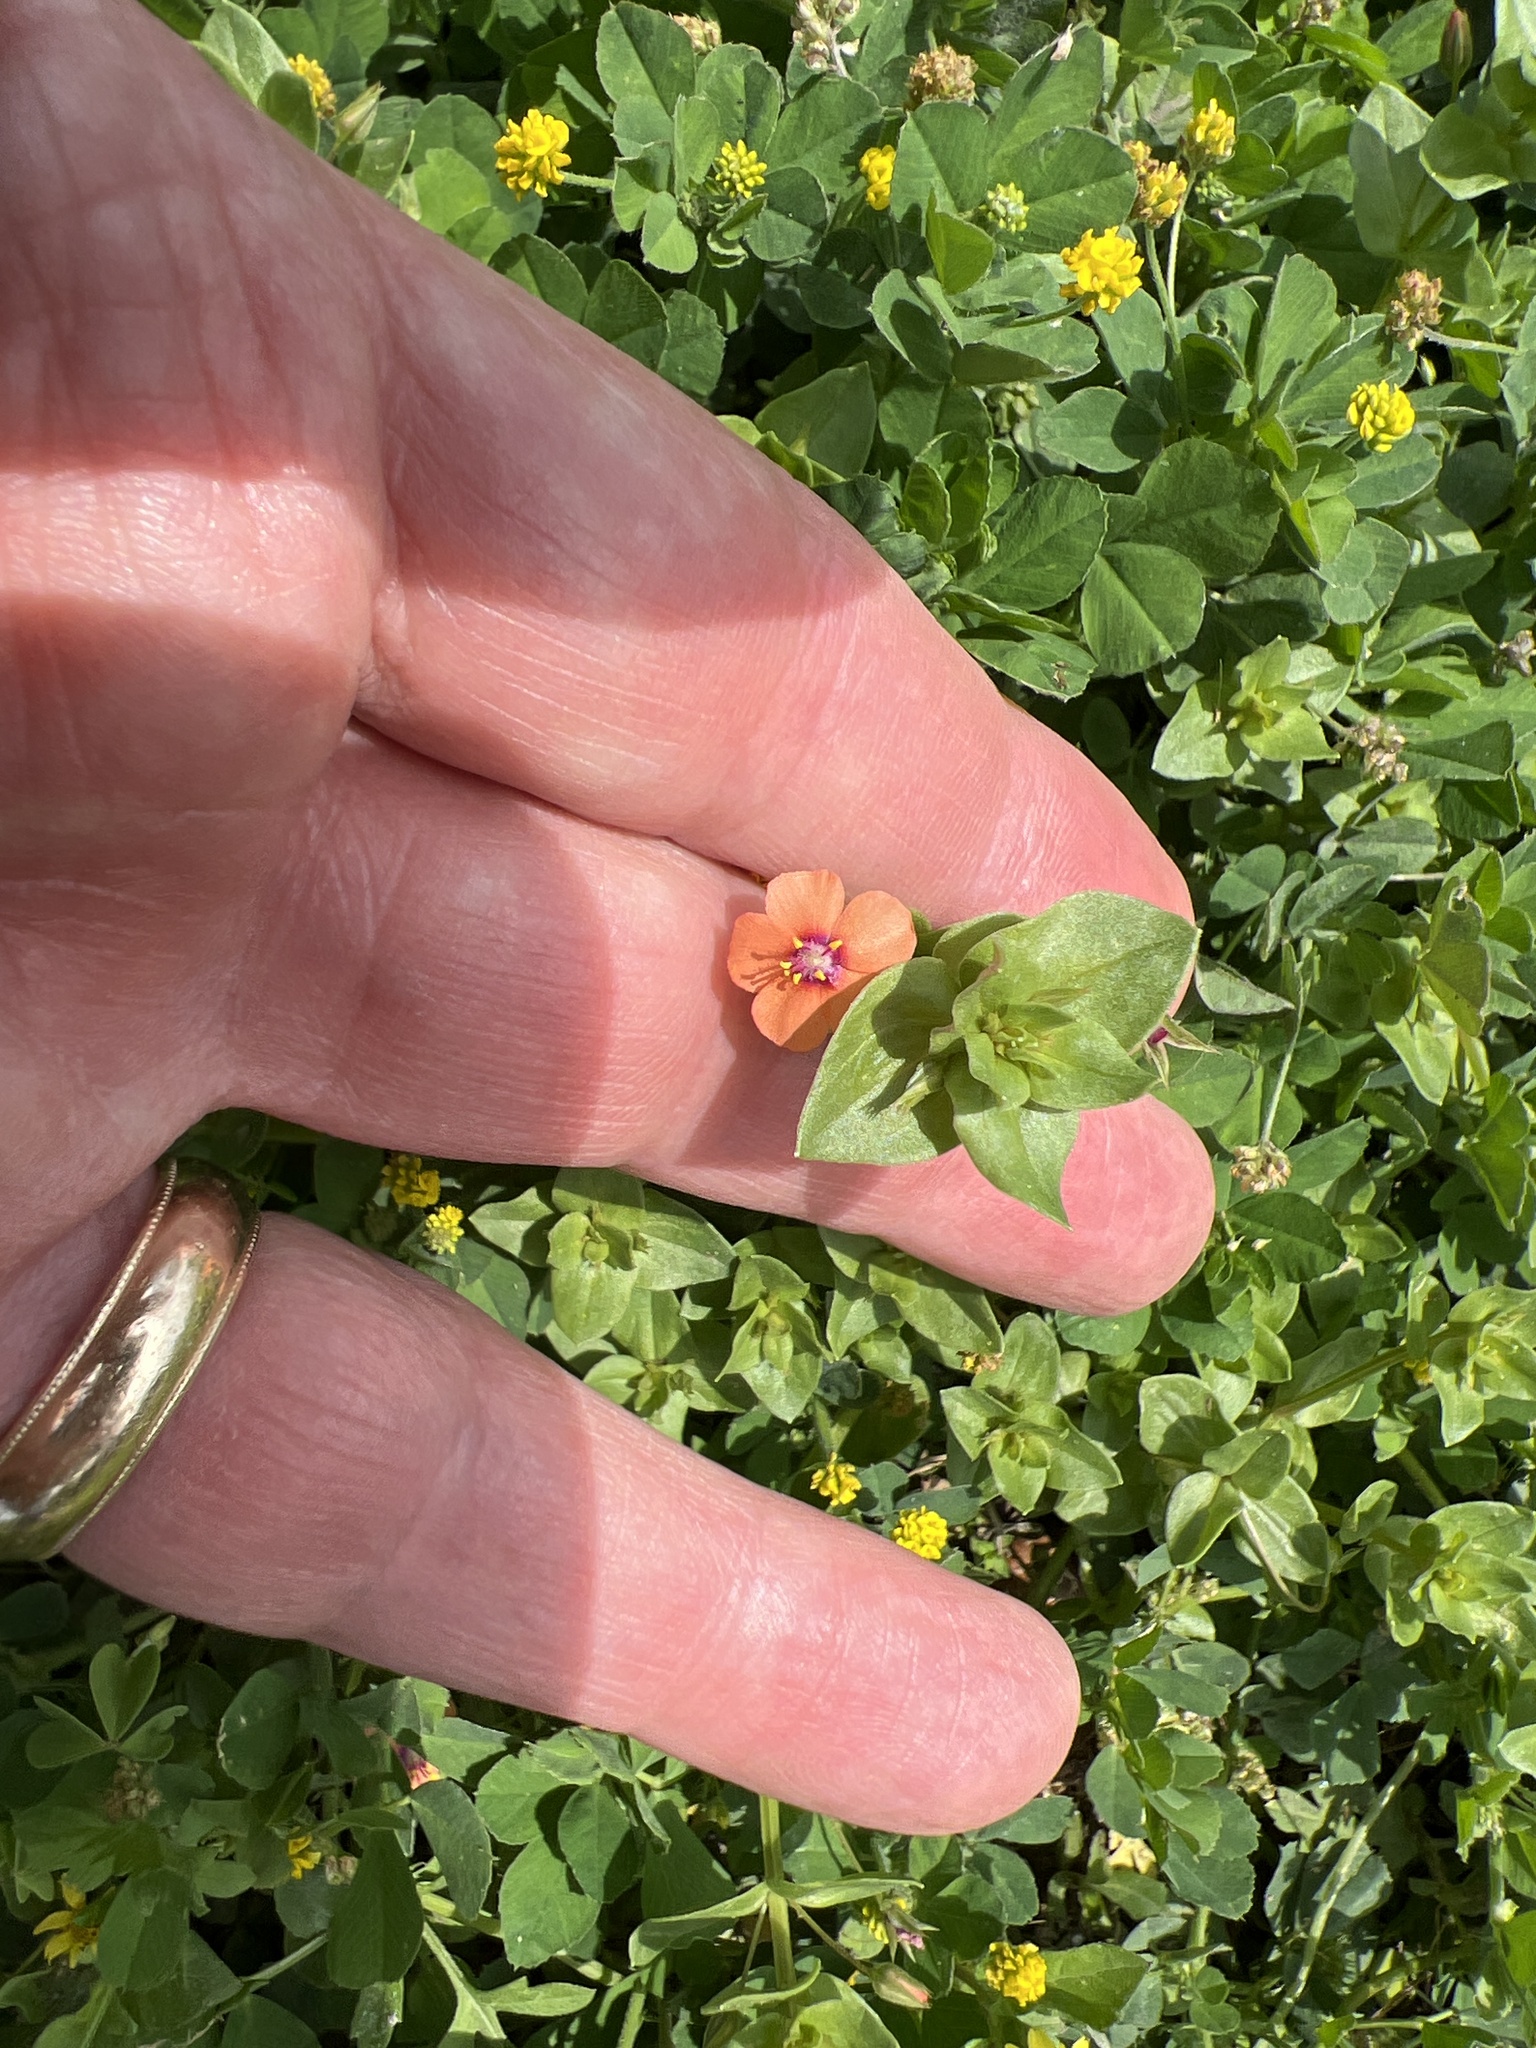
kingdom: Plantae
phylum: Tracheophyta
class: Magnoliopsida
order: Ericales
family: Primulaceae
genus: Lysimachia
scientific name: Lysimachia arvensis
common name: Scarlet pimpernel
